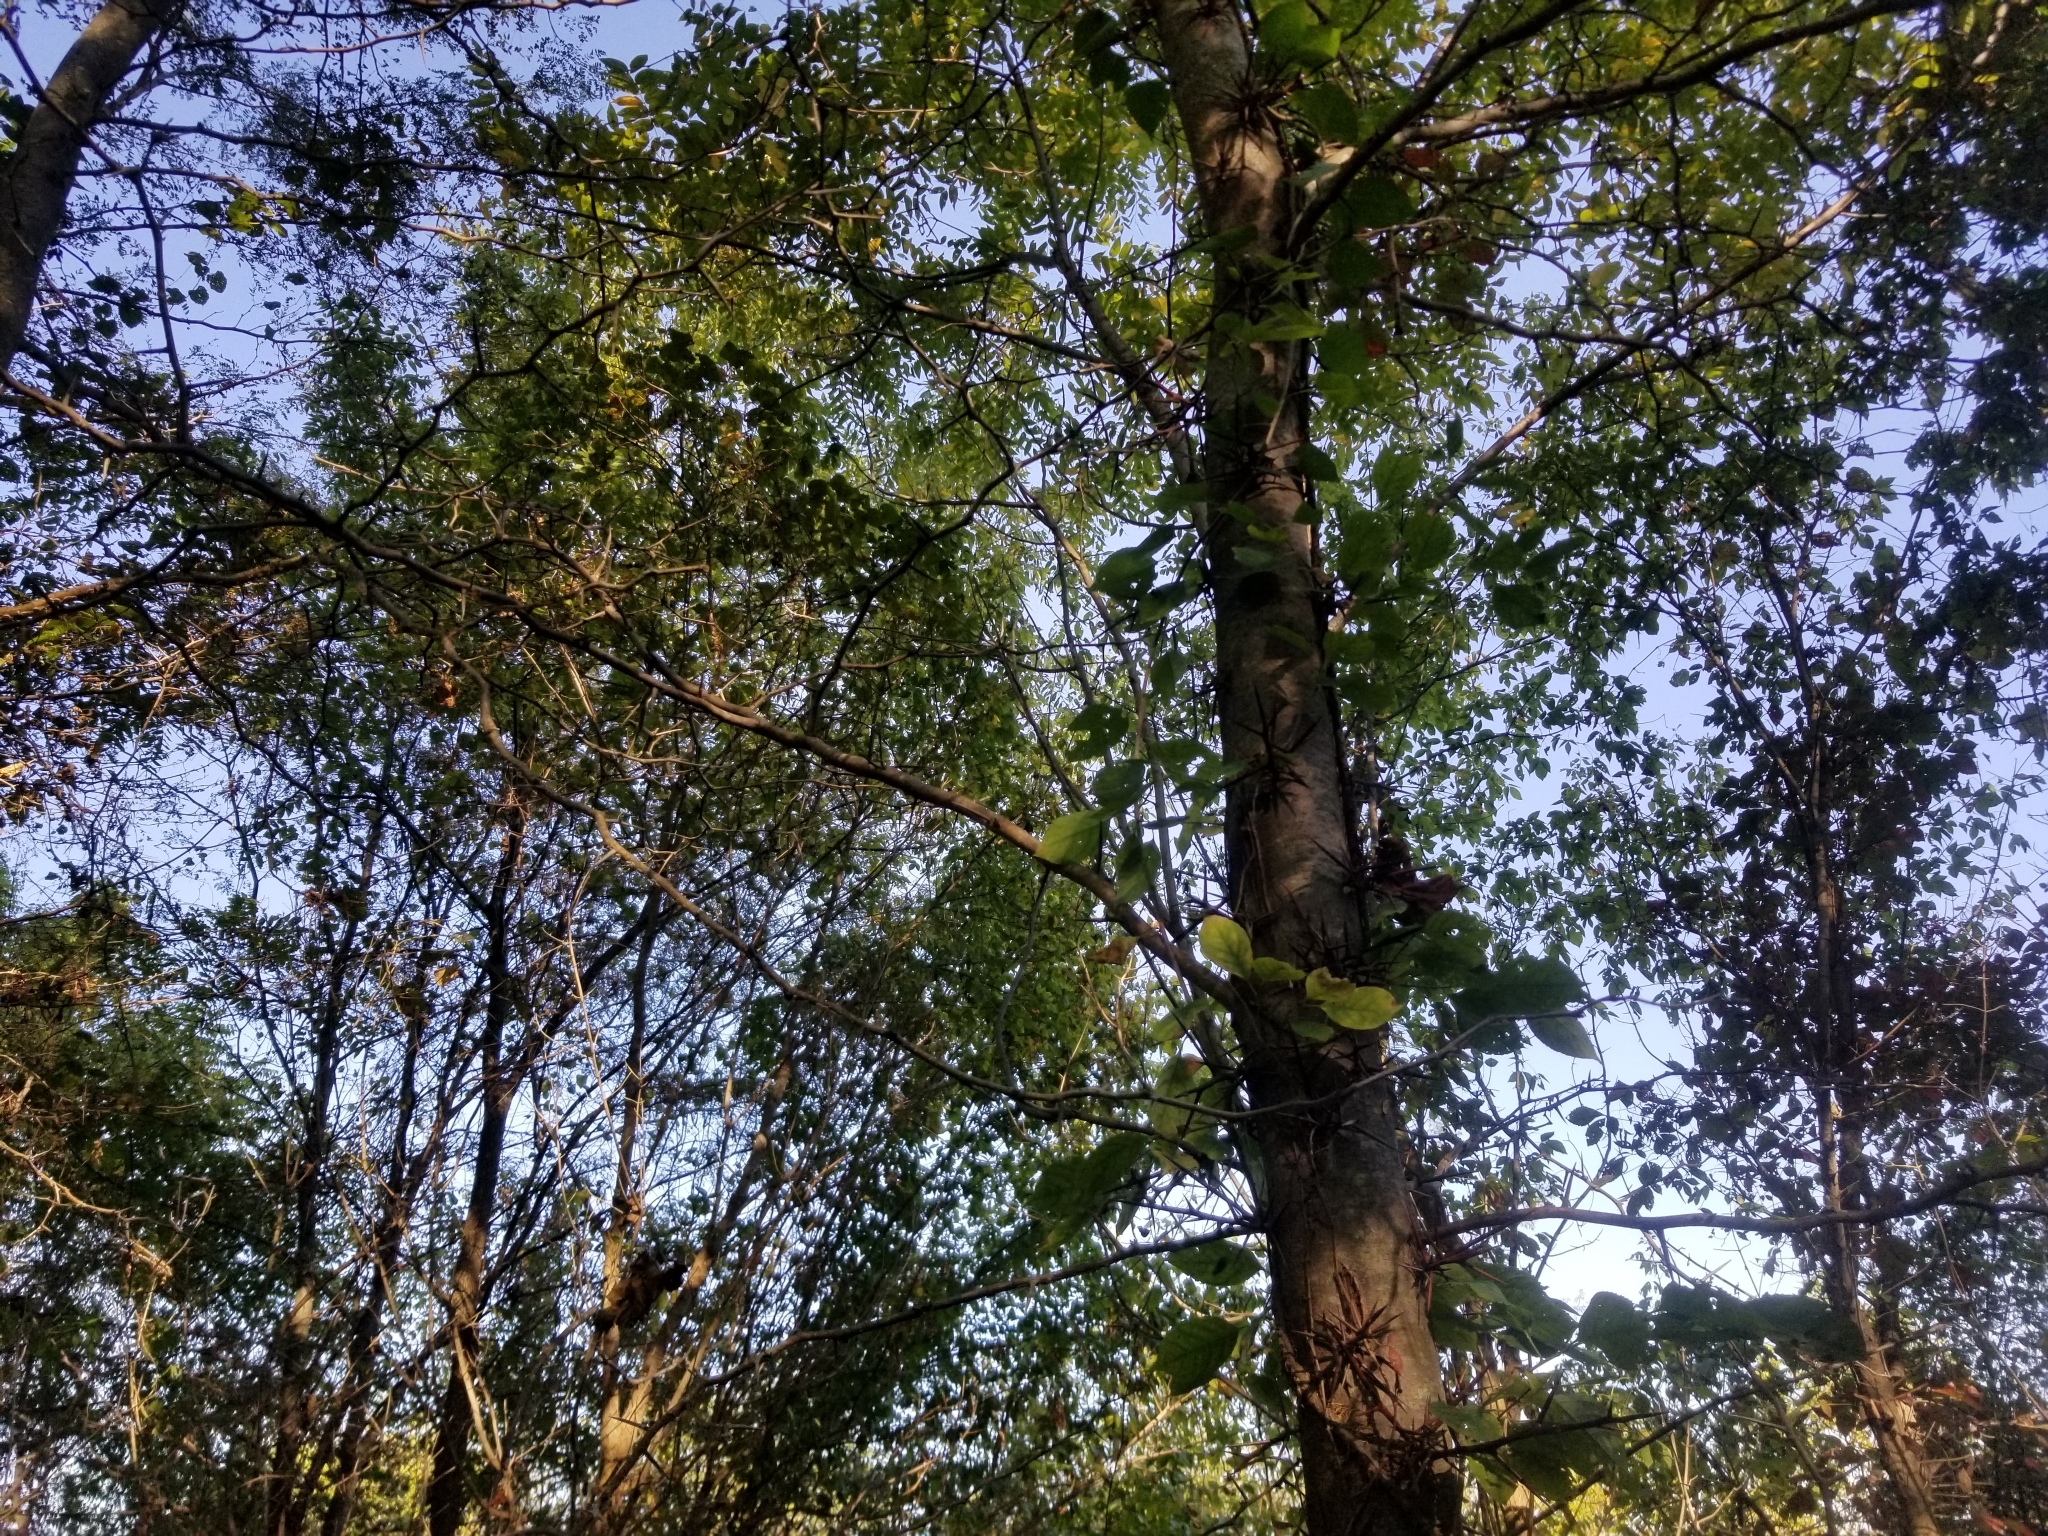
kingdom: Plantae
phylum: Tracheophyta
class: Magnoliopsida
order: Fabales
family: Fabaceae
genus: Gleditsia
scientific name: Gleditsia triacanthos
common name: Common honeylocust
